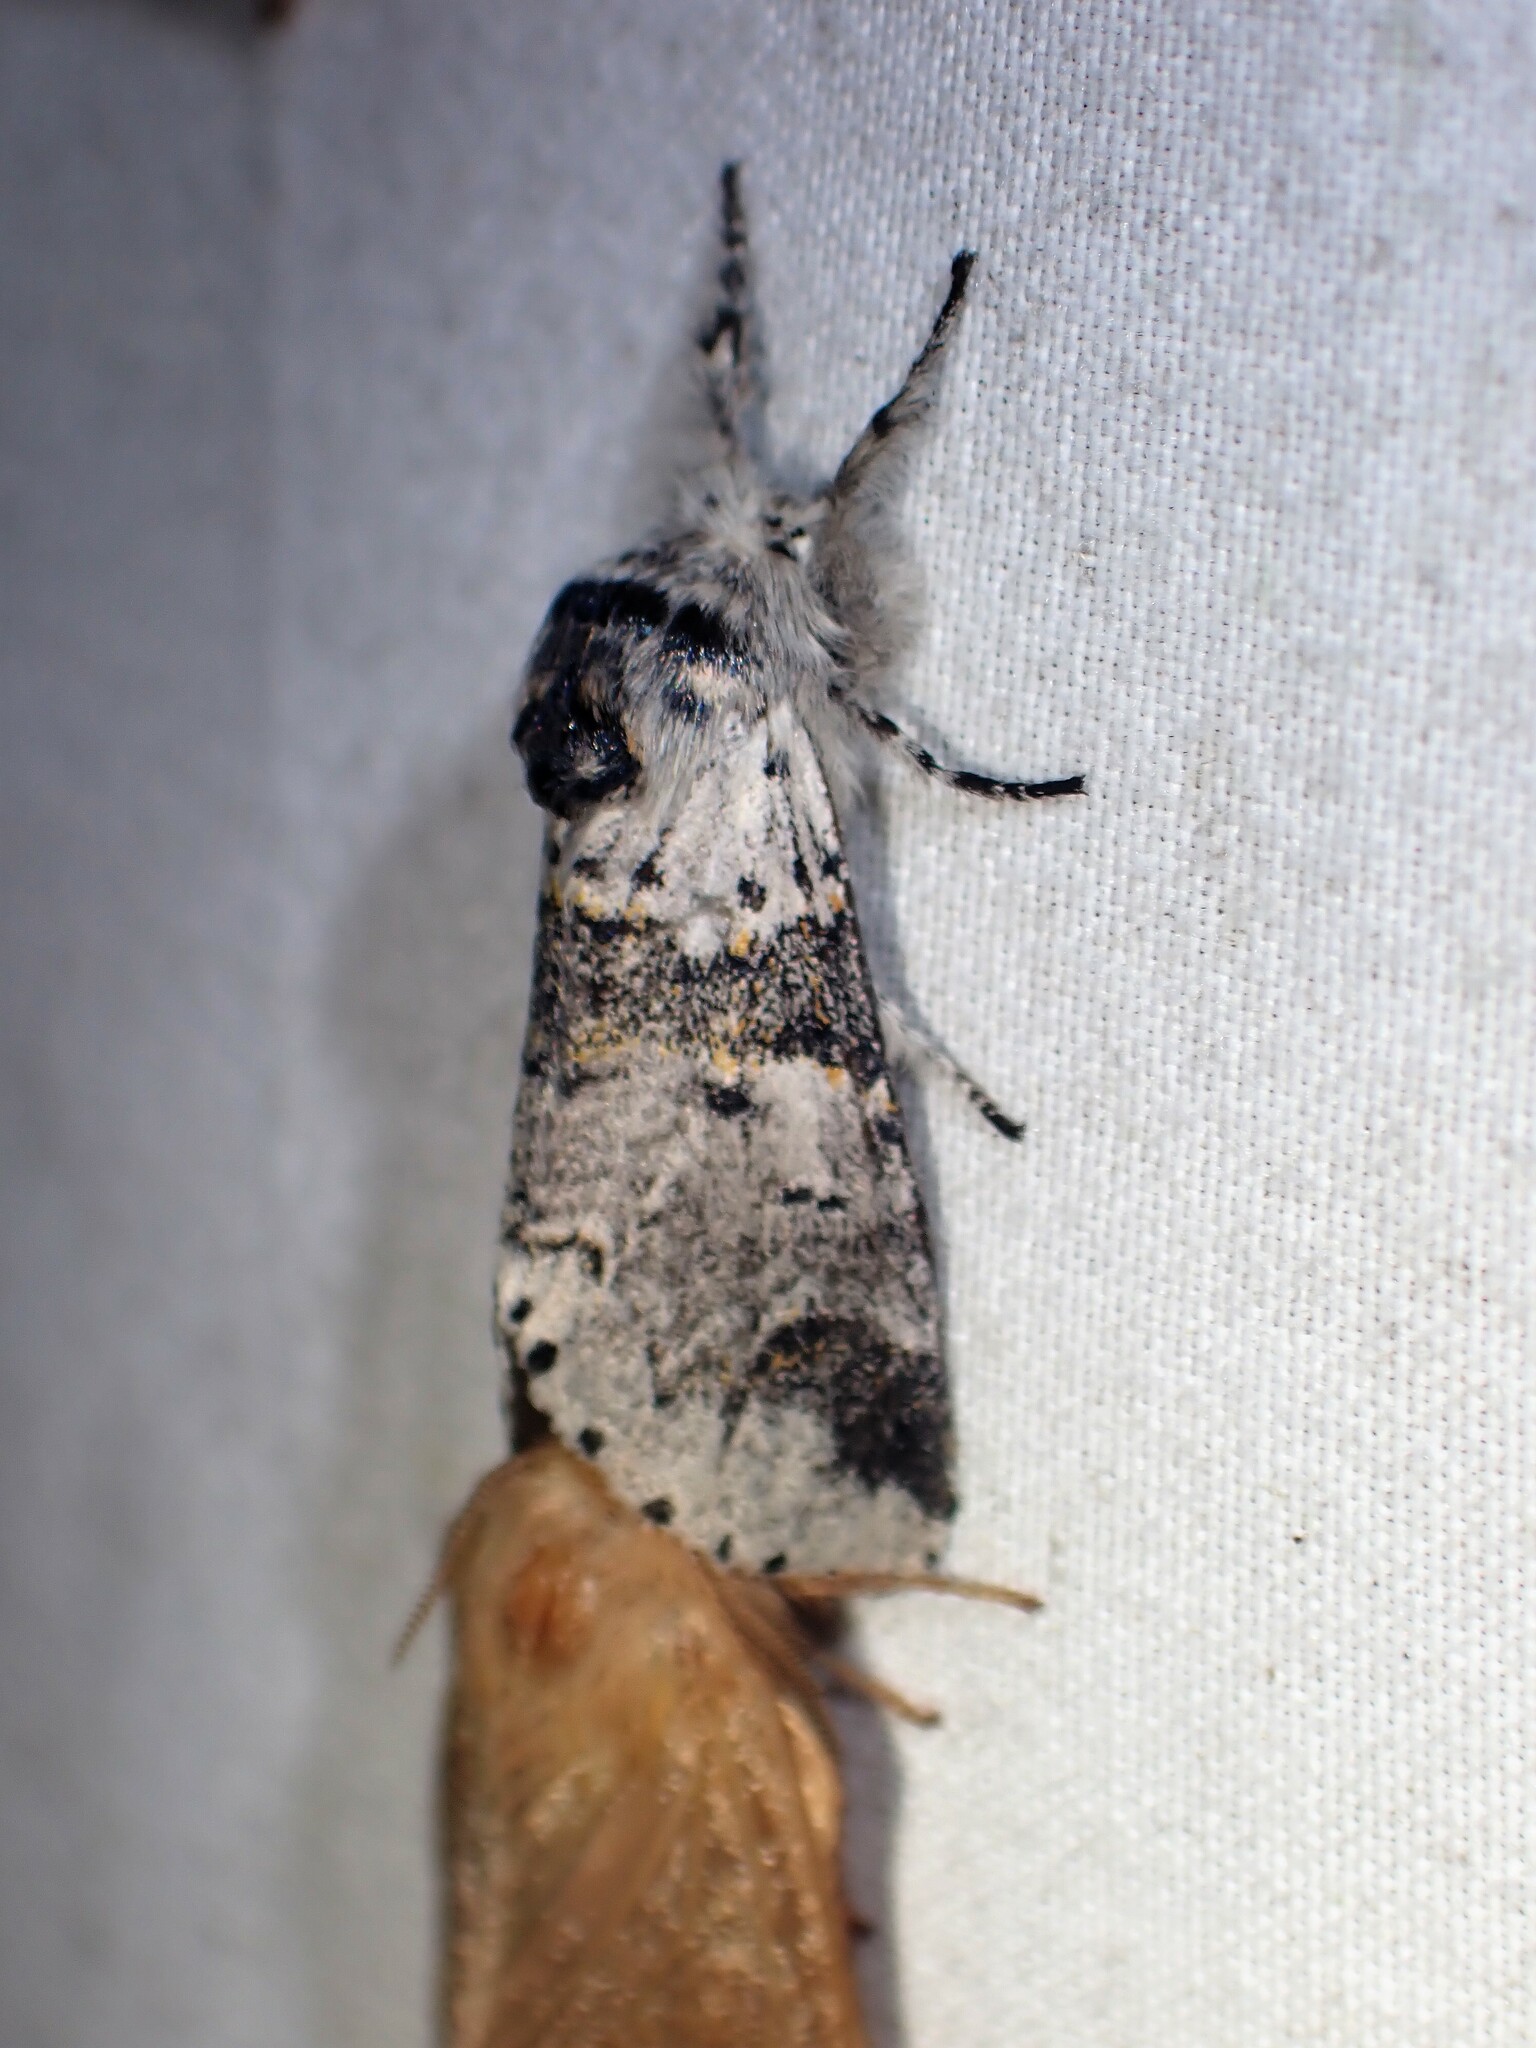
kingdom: Animalia
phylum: Arthropoda
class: Insecta
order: Lepidoptera
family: Notodontidae
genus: Furcula
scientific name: Furcula occidentalis
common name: Western furcula moth
